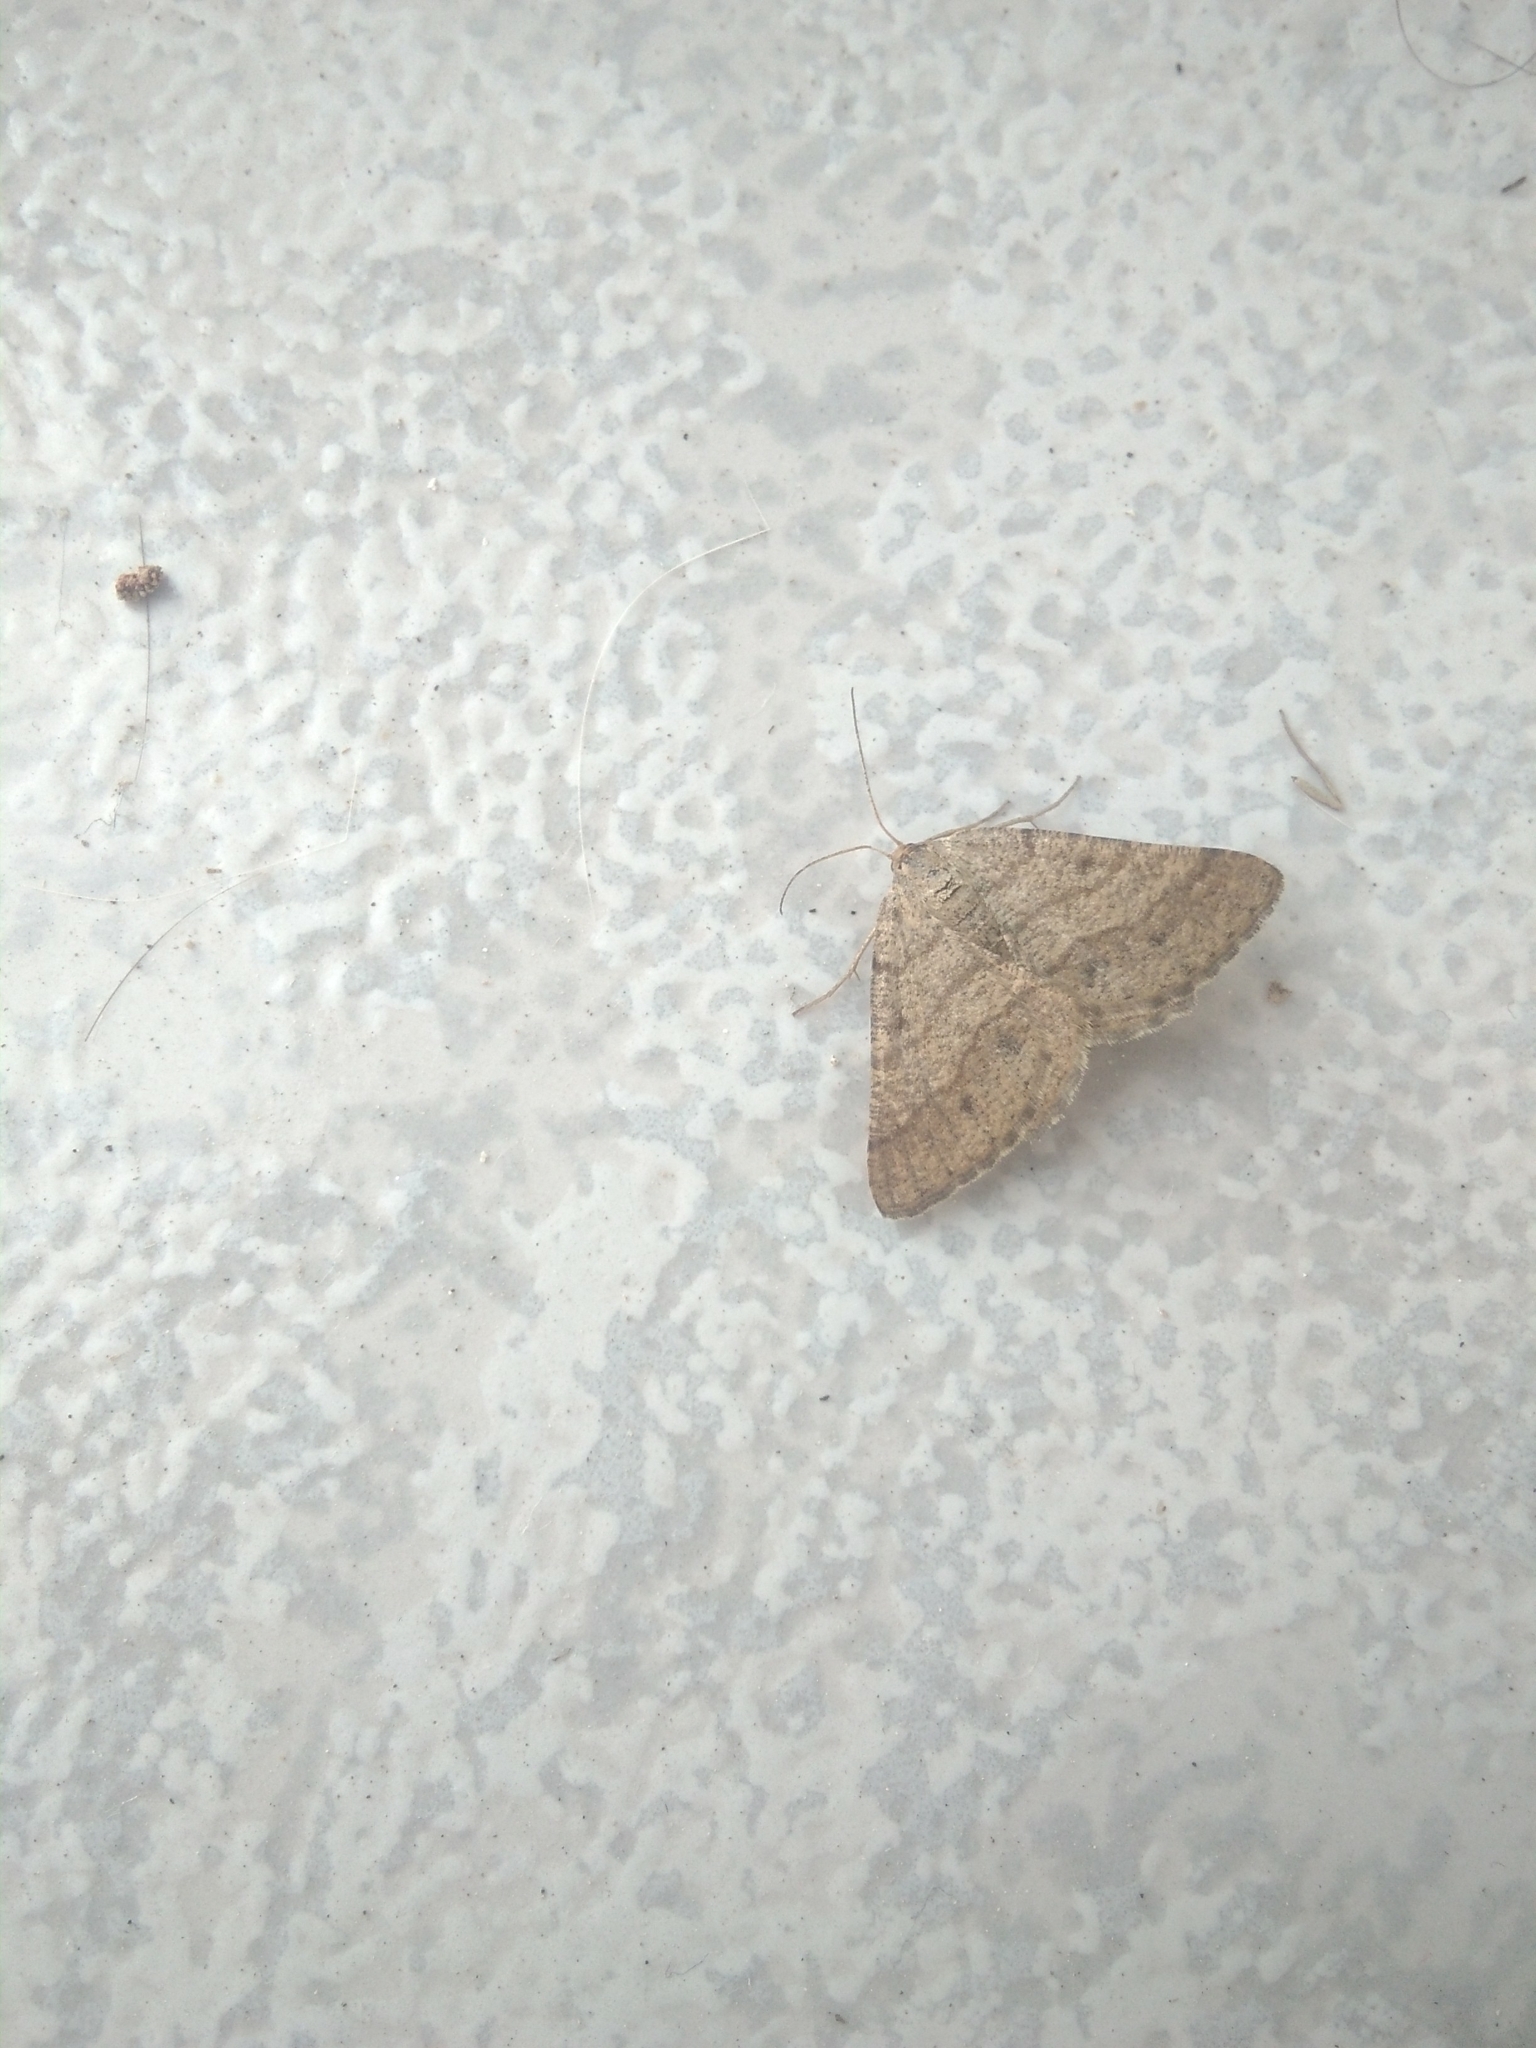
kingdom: Animalia
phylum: Arthropoda
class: Insecta
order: Lepidoptera
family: Geometridae
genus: Tephrina
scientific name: Tephrina murinaria
